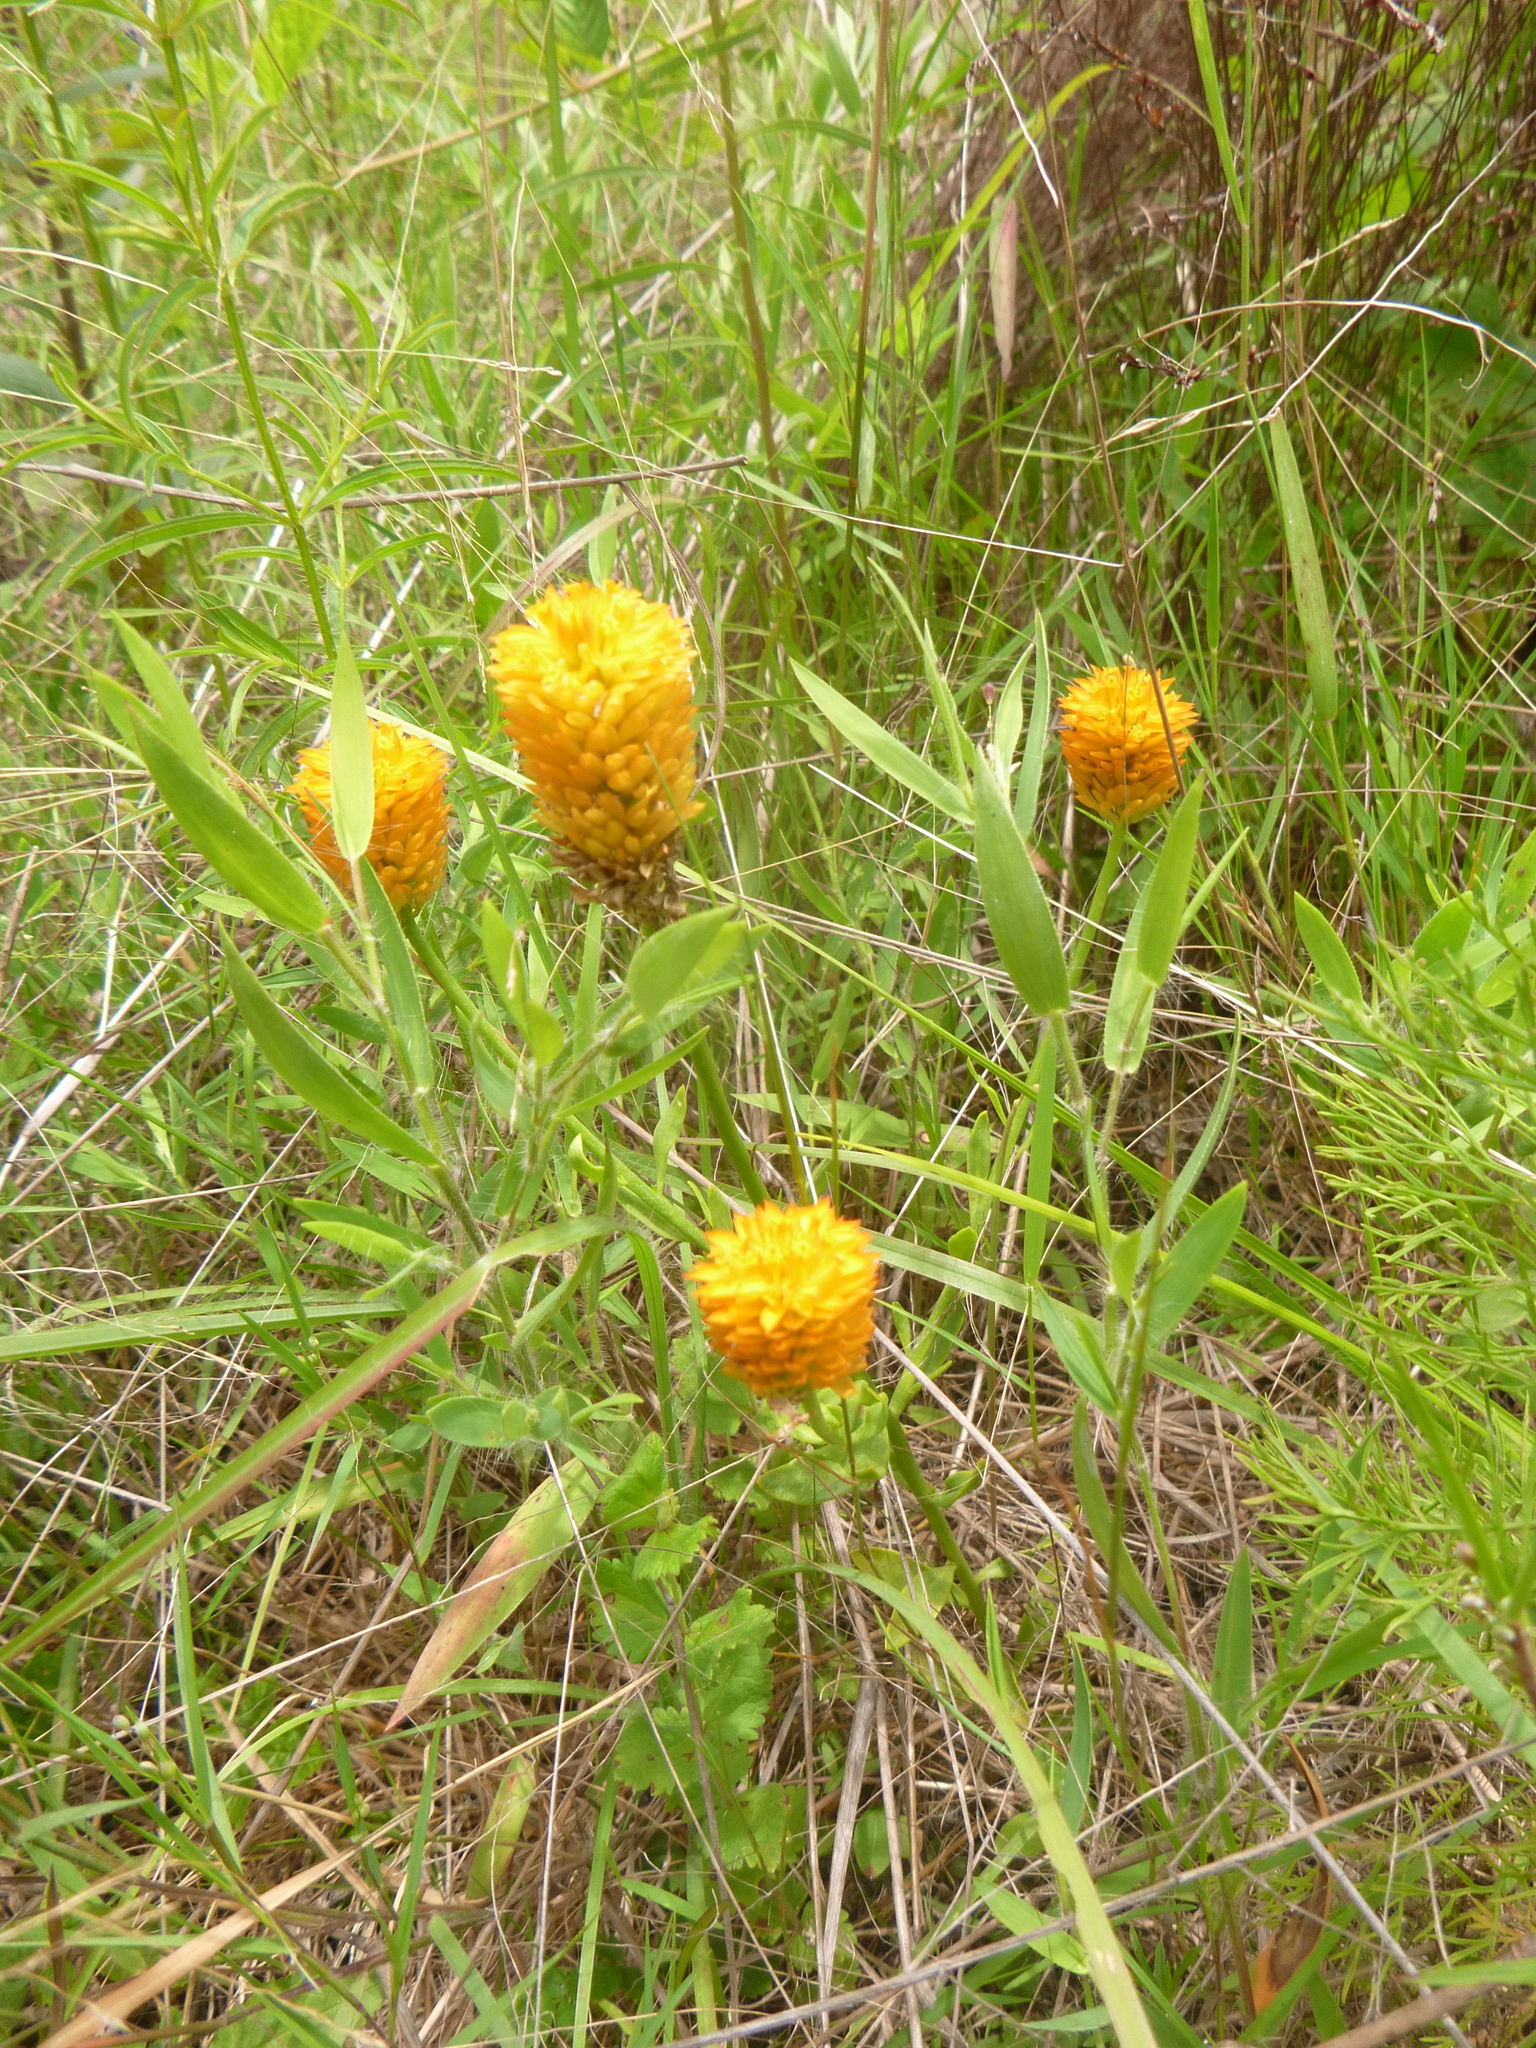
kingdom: Plantae
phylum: Tracheophyta
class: Magnoliopsida
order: Fabales
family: Polygalaceae
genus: Polygala
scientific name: Polygala lutea
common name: Orange milkwort
